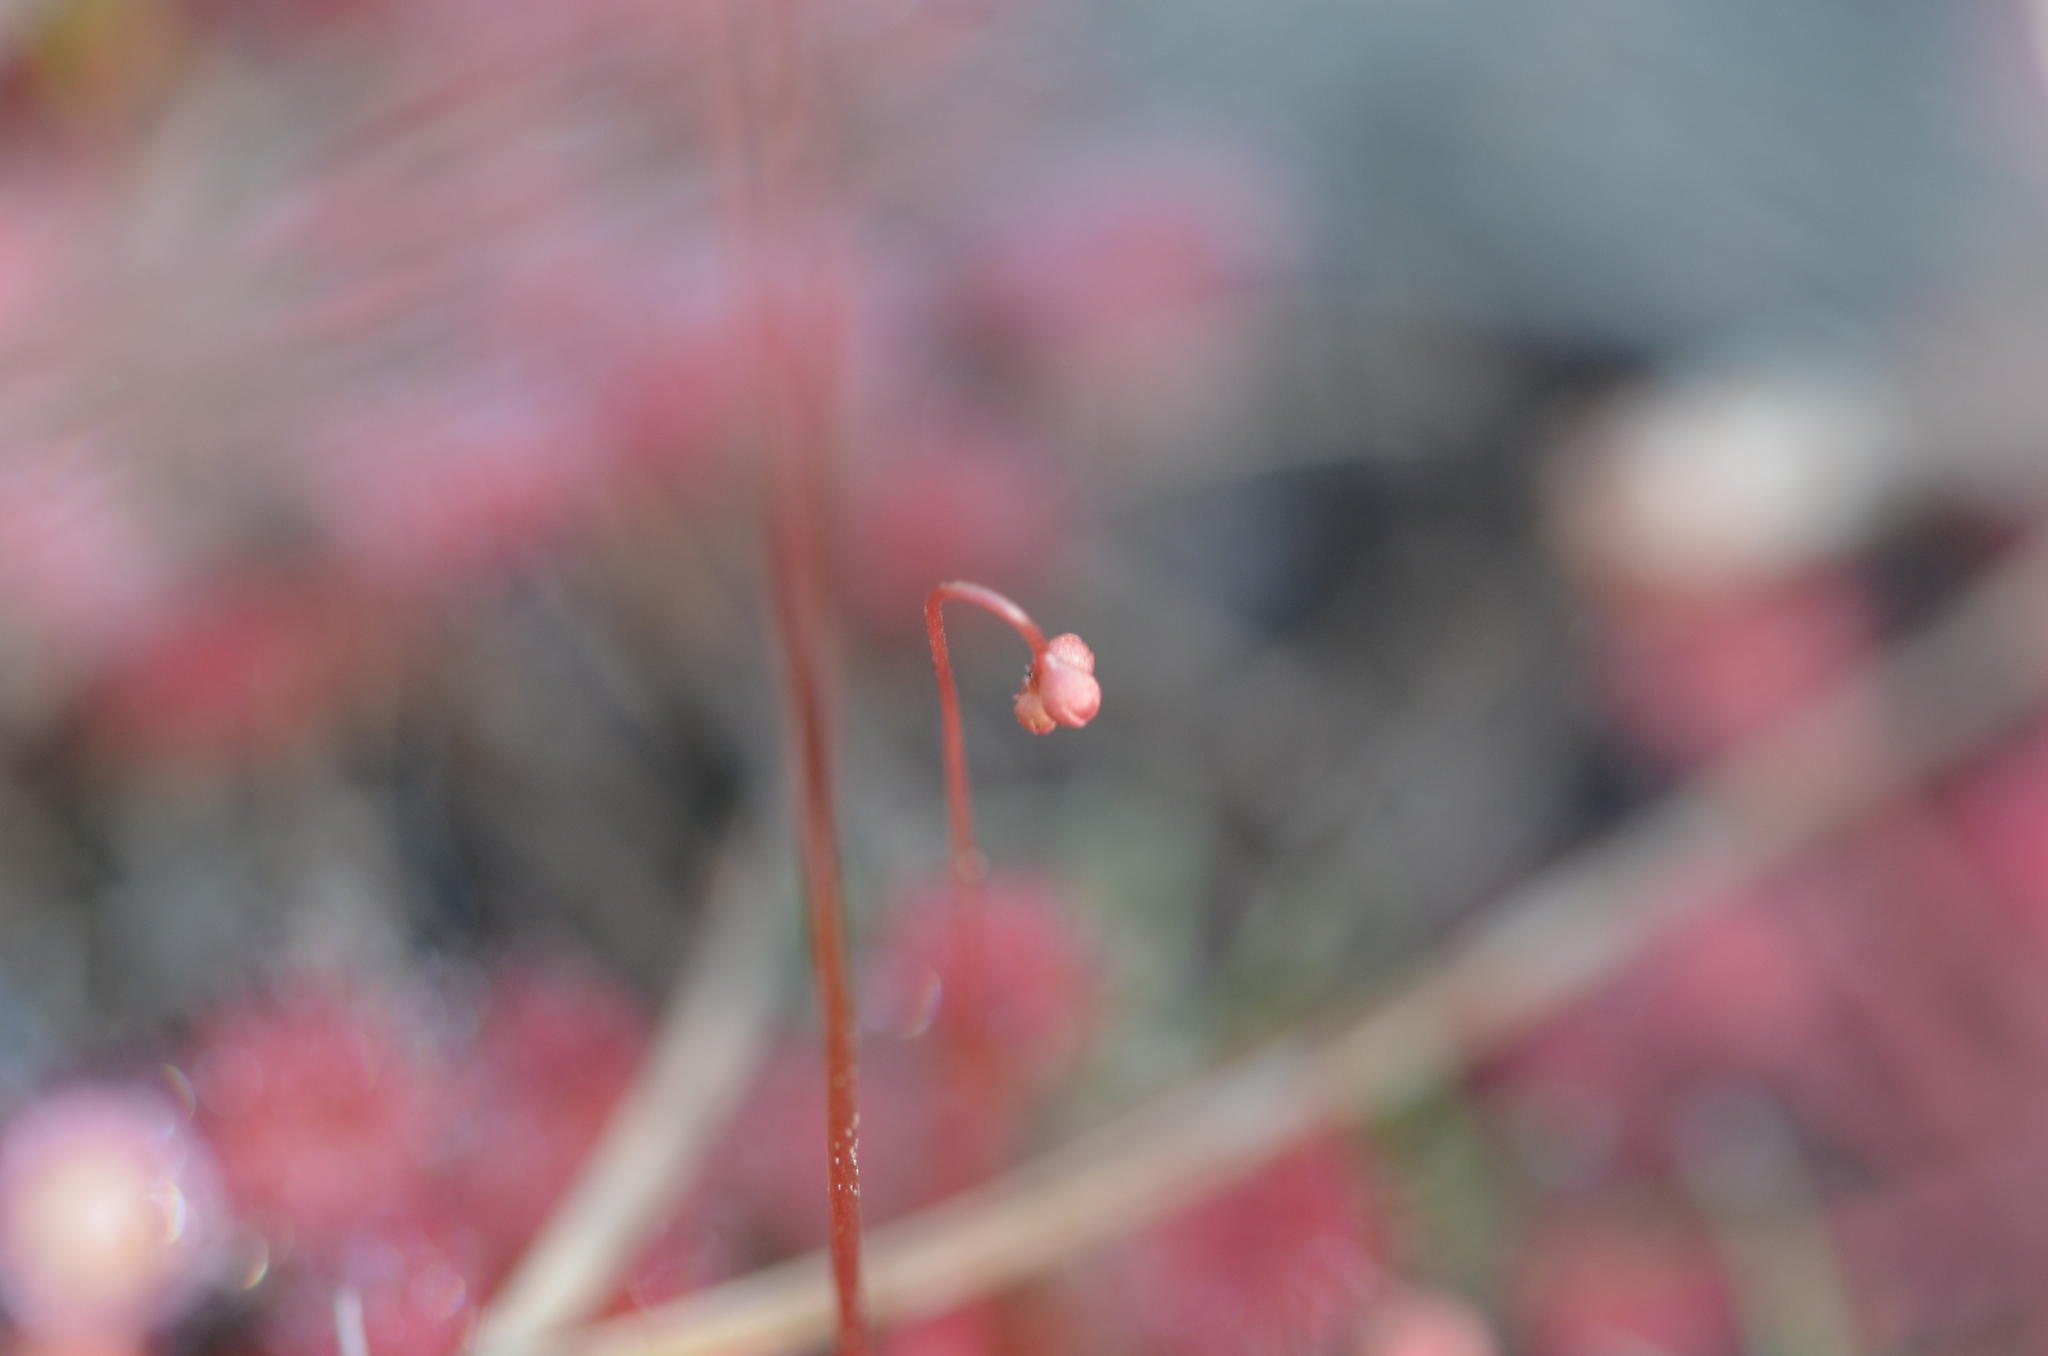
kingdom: Plantae
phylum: Tracheophyta
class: Magnoliopsida
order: Caryophyllales
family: Droseraceae
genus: Drosera
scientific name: Drosera capillaris
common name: Pink sundew
